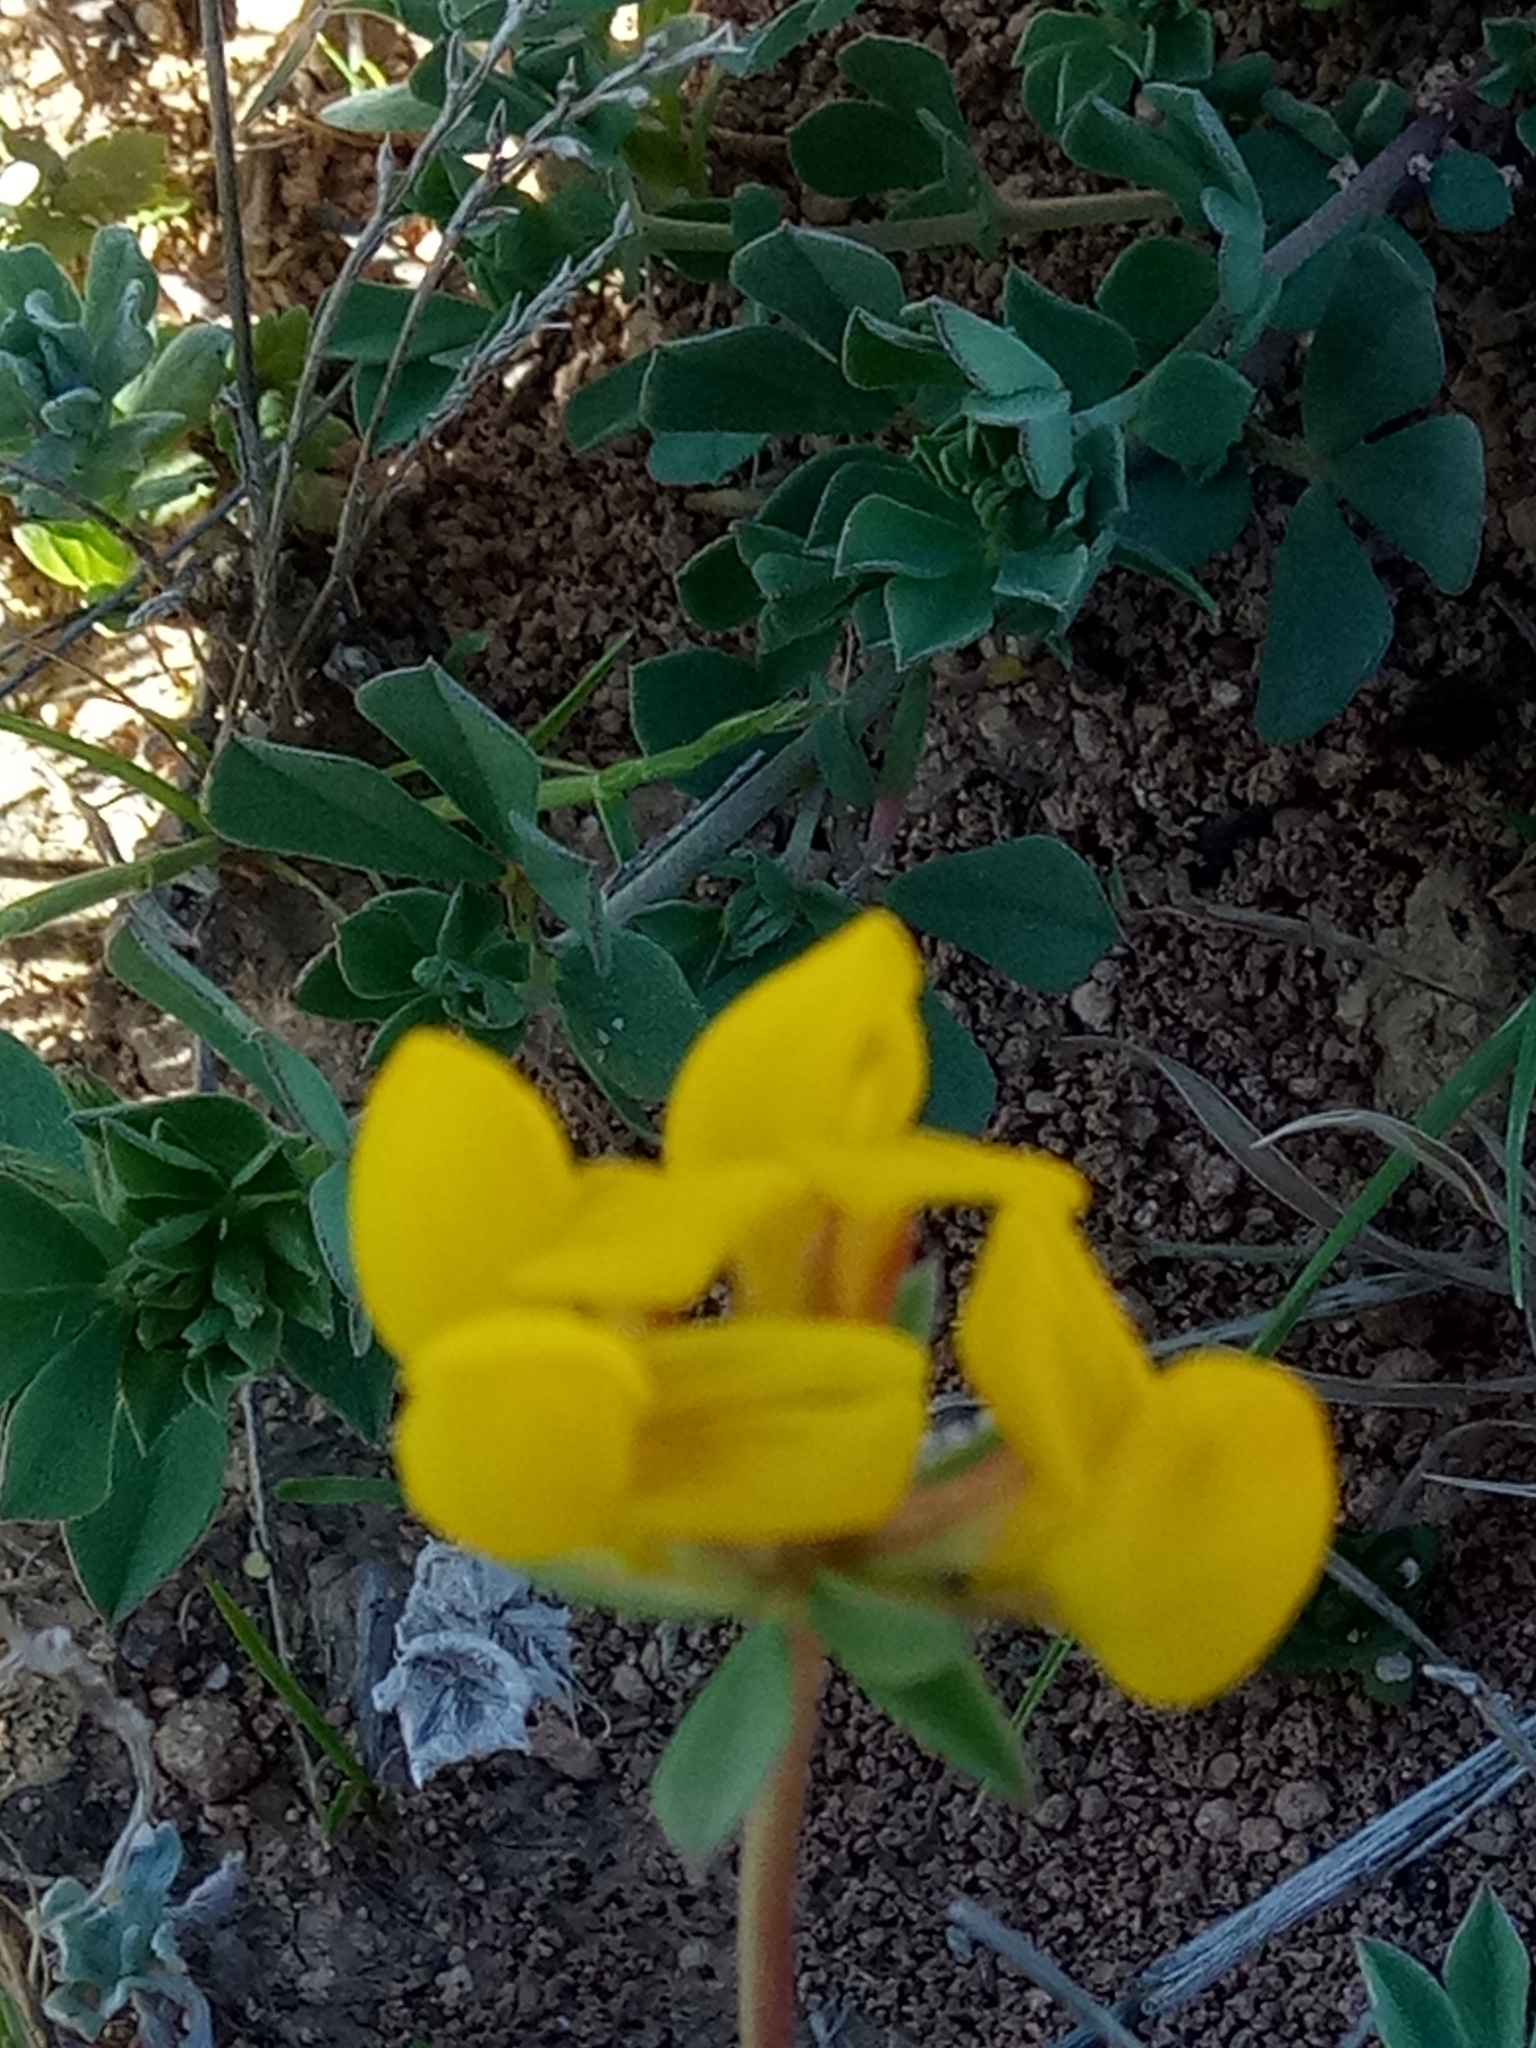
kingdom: Plantae
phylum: Tracheophyta
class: Magnoliopsida
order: Fabales
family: Fabaceae
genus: Lotus
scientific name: Lotus longisiliquosus
